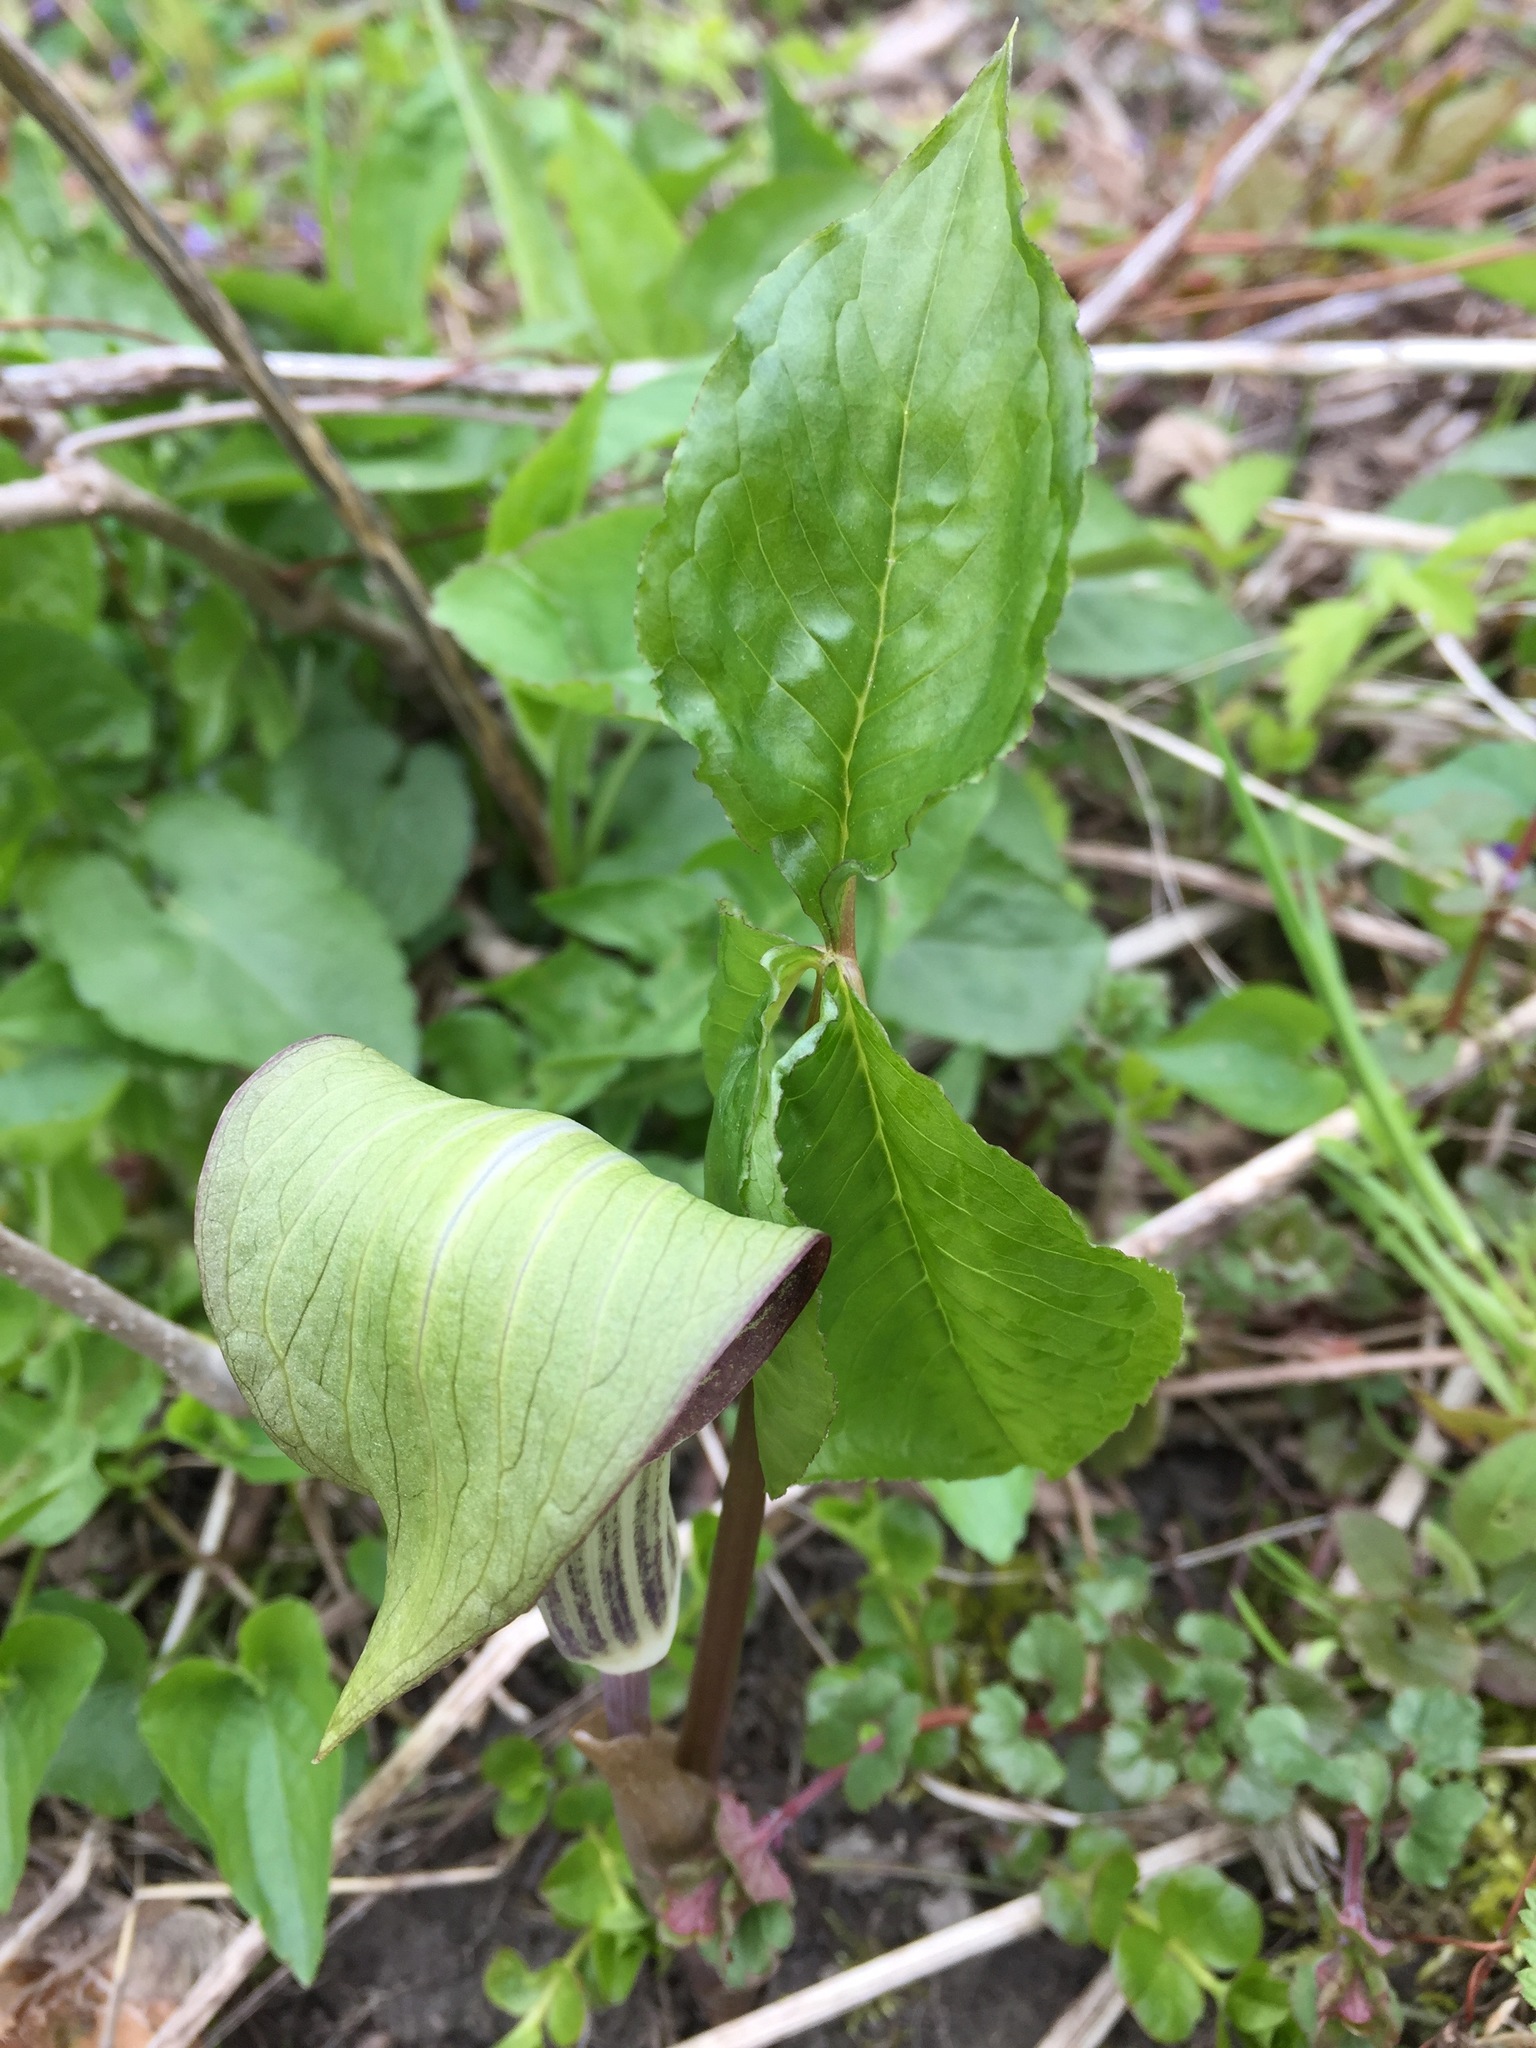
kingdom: Plantae
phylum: Tracheophyta
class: Liliopsida
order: Alismatales
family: Araceae
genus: Arisaema
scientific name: Arisaema triphyllum
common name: Jack-in-the-pulpit
